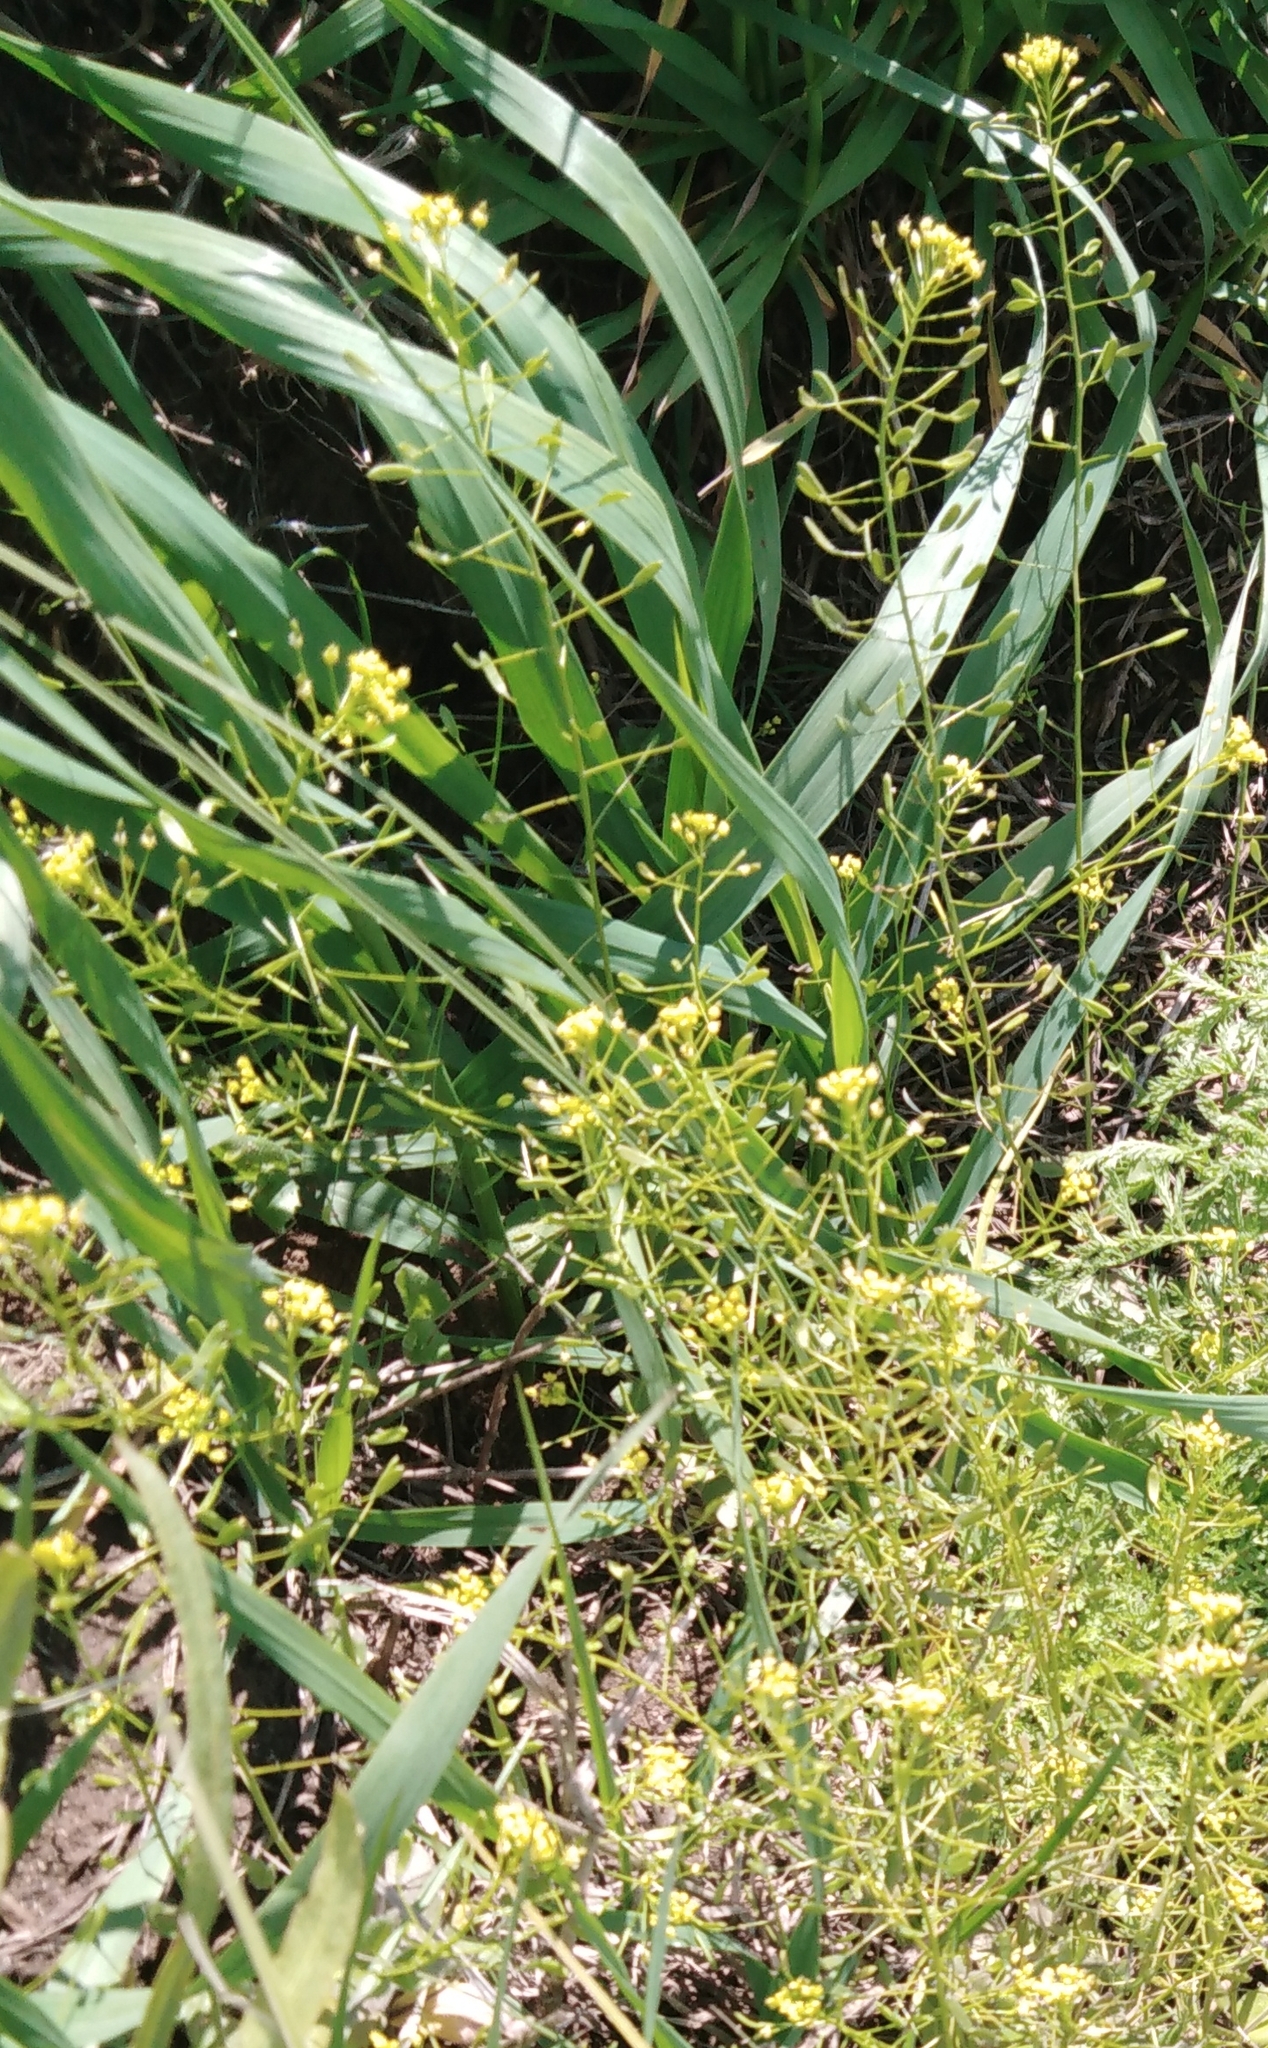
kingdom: Plantae
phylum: Tracheophyta
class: Magnoliopsida
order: Brassicales
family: Brassicaceae
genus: Draba
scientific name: Draba nemorosa
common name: Wood whitlow-grass
